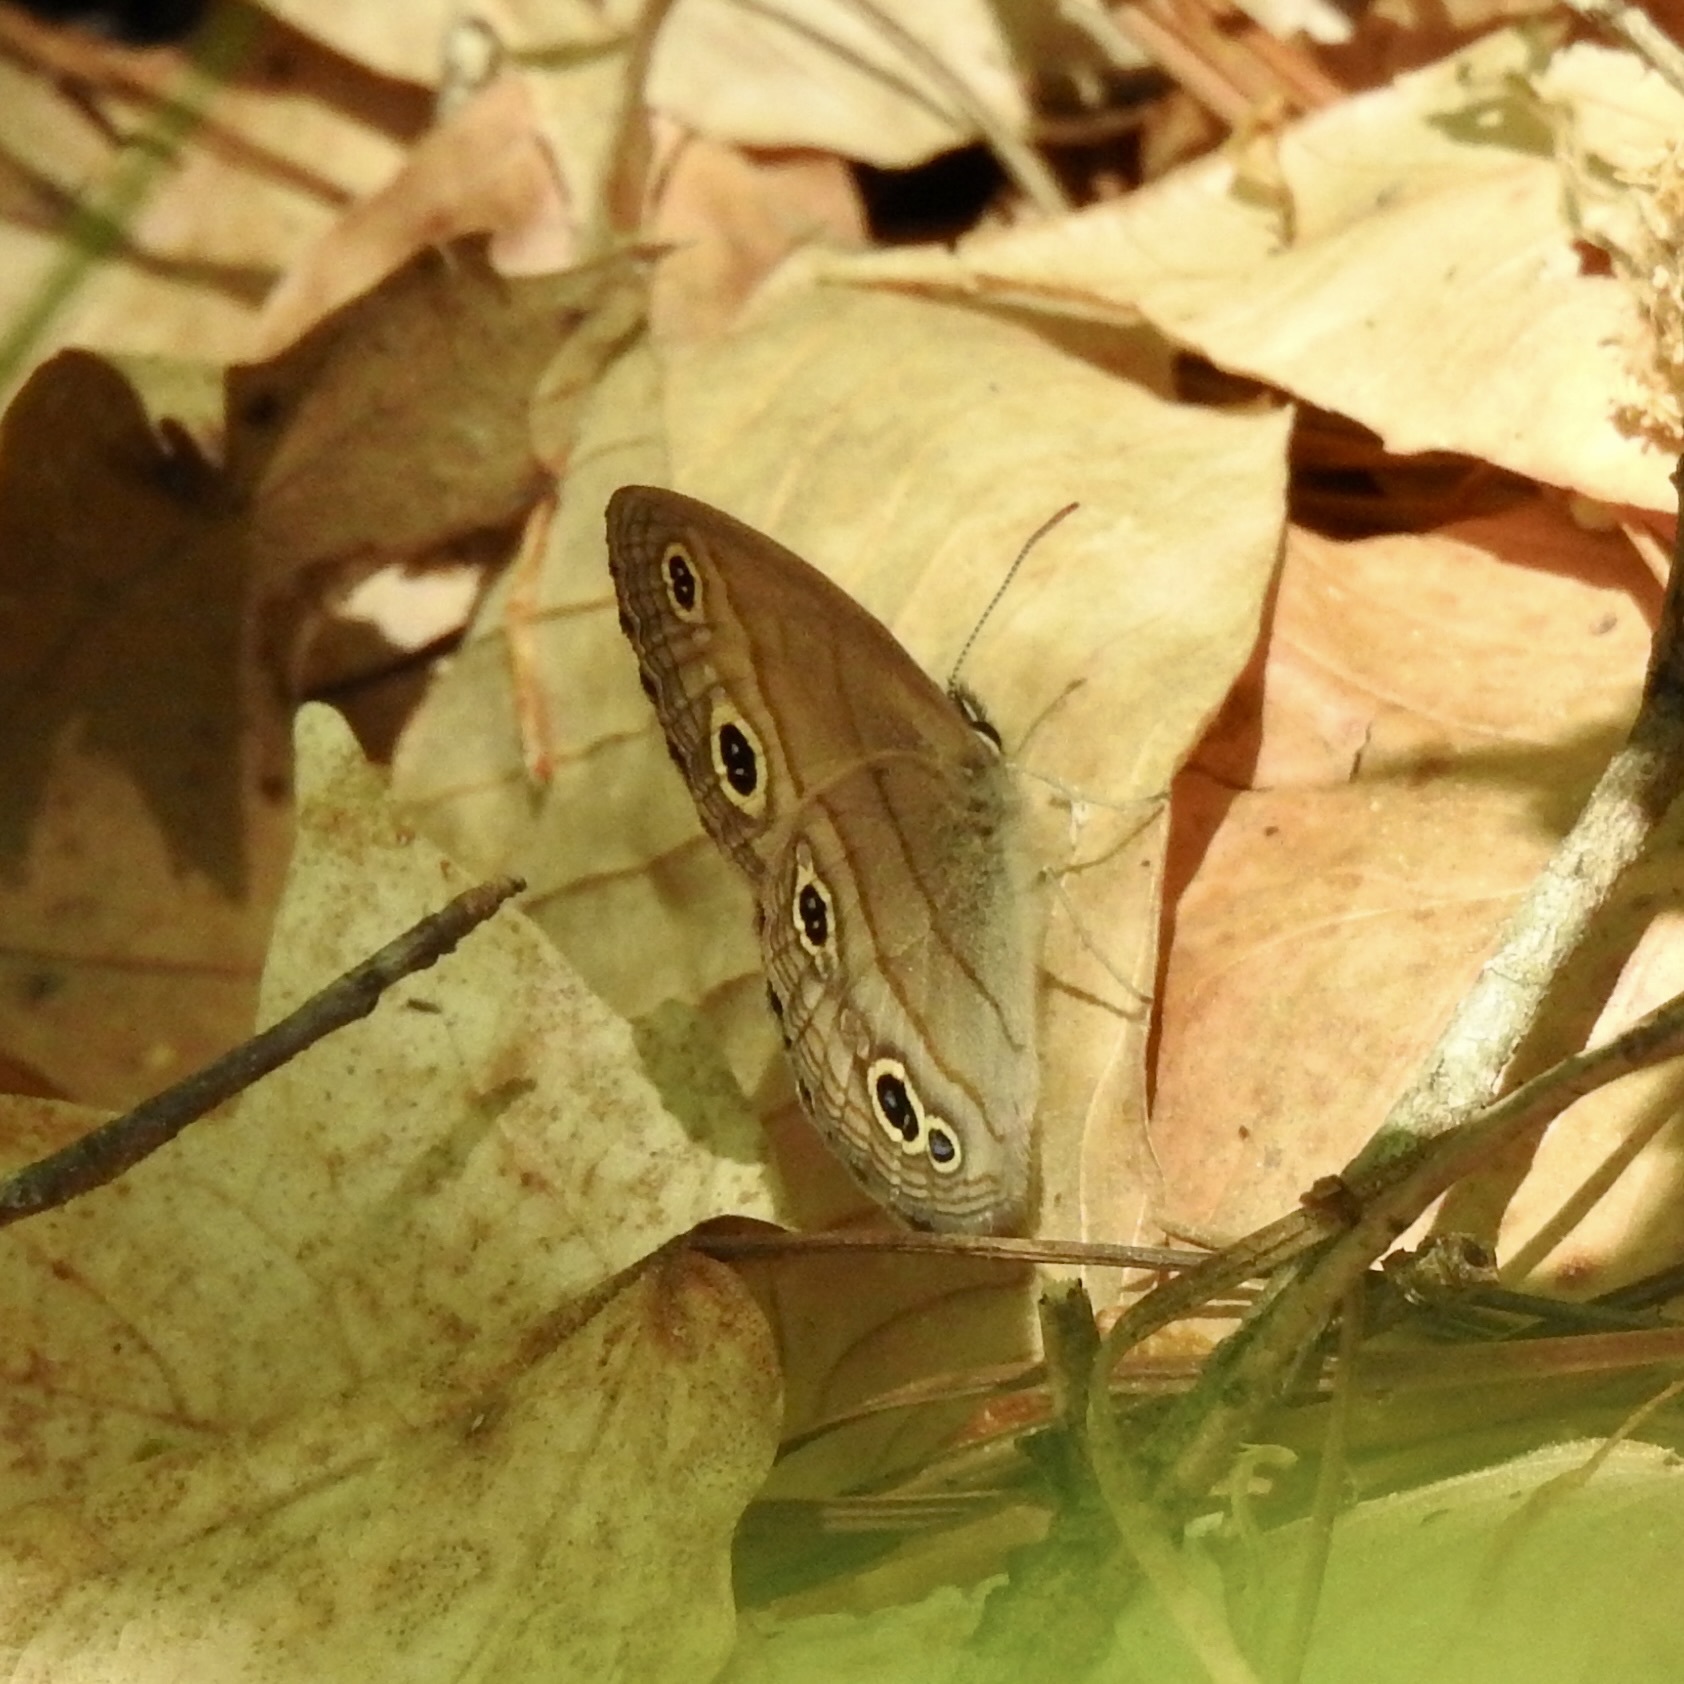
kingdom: Animalia
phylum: Arthropoda
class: Insecta
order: Lepidoptera
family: Nymphalidae
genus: Euptychia
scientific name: Euptychia cymela
